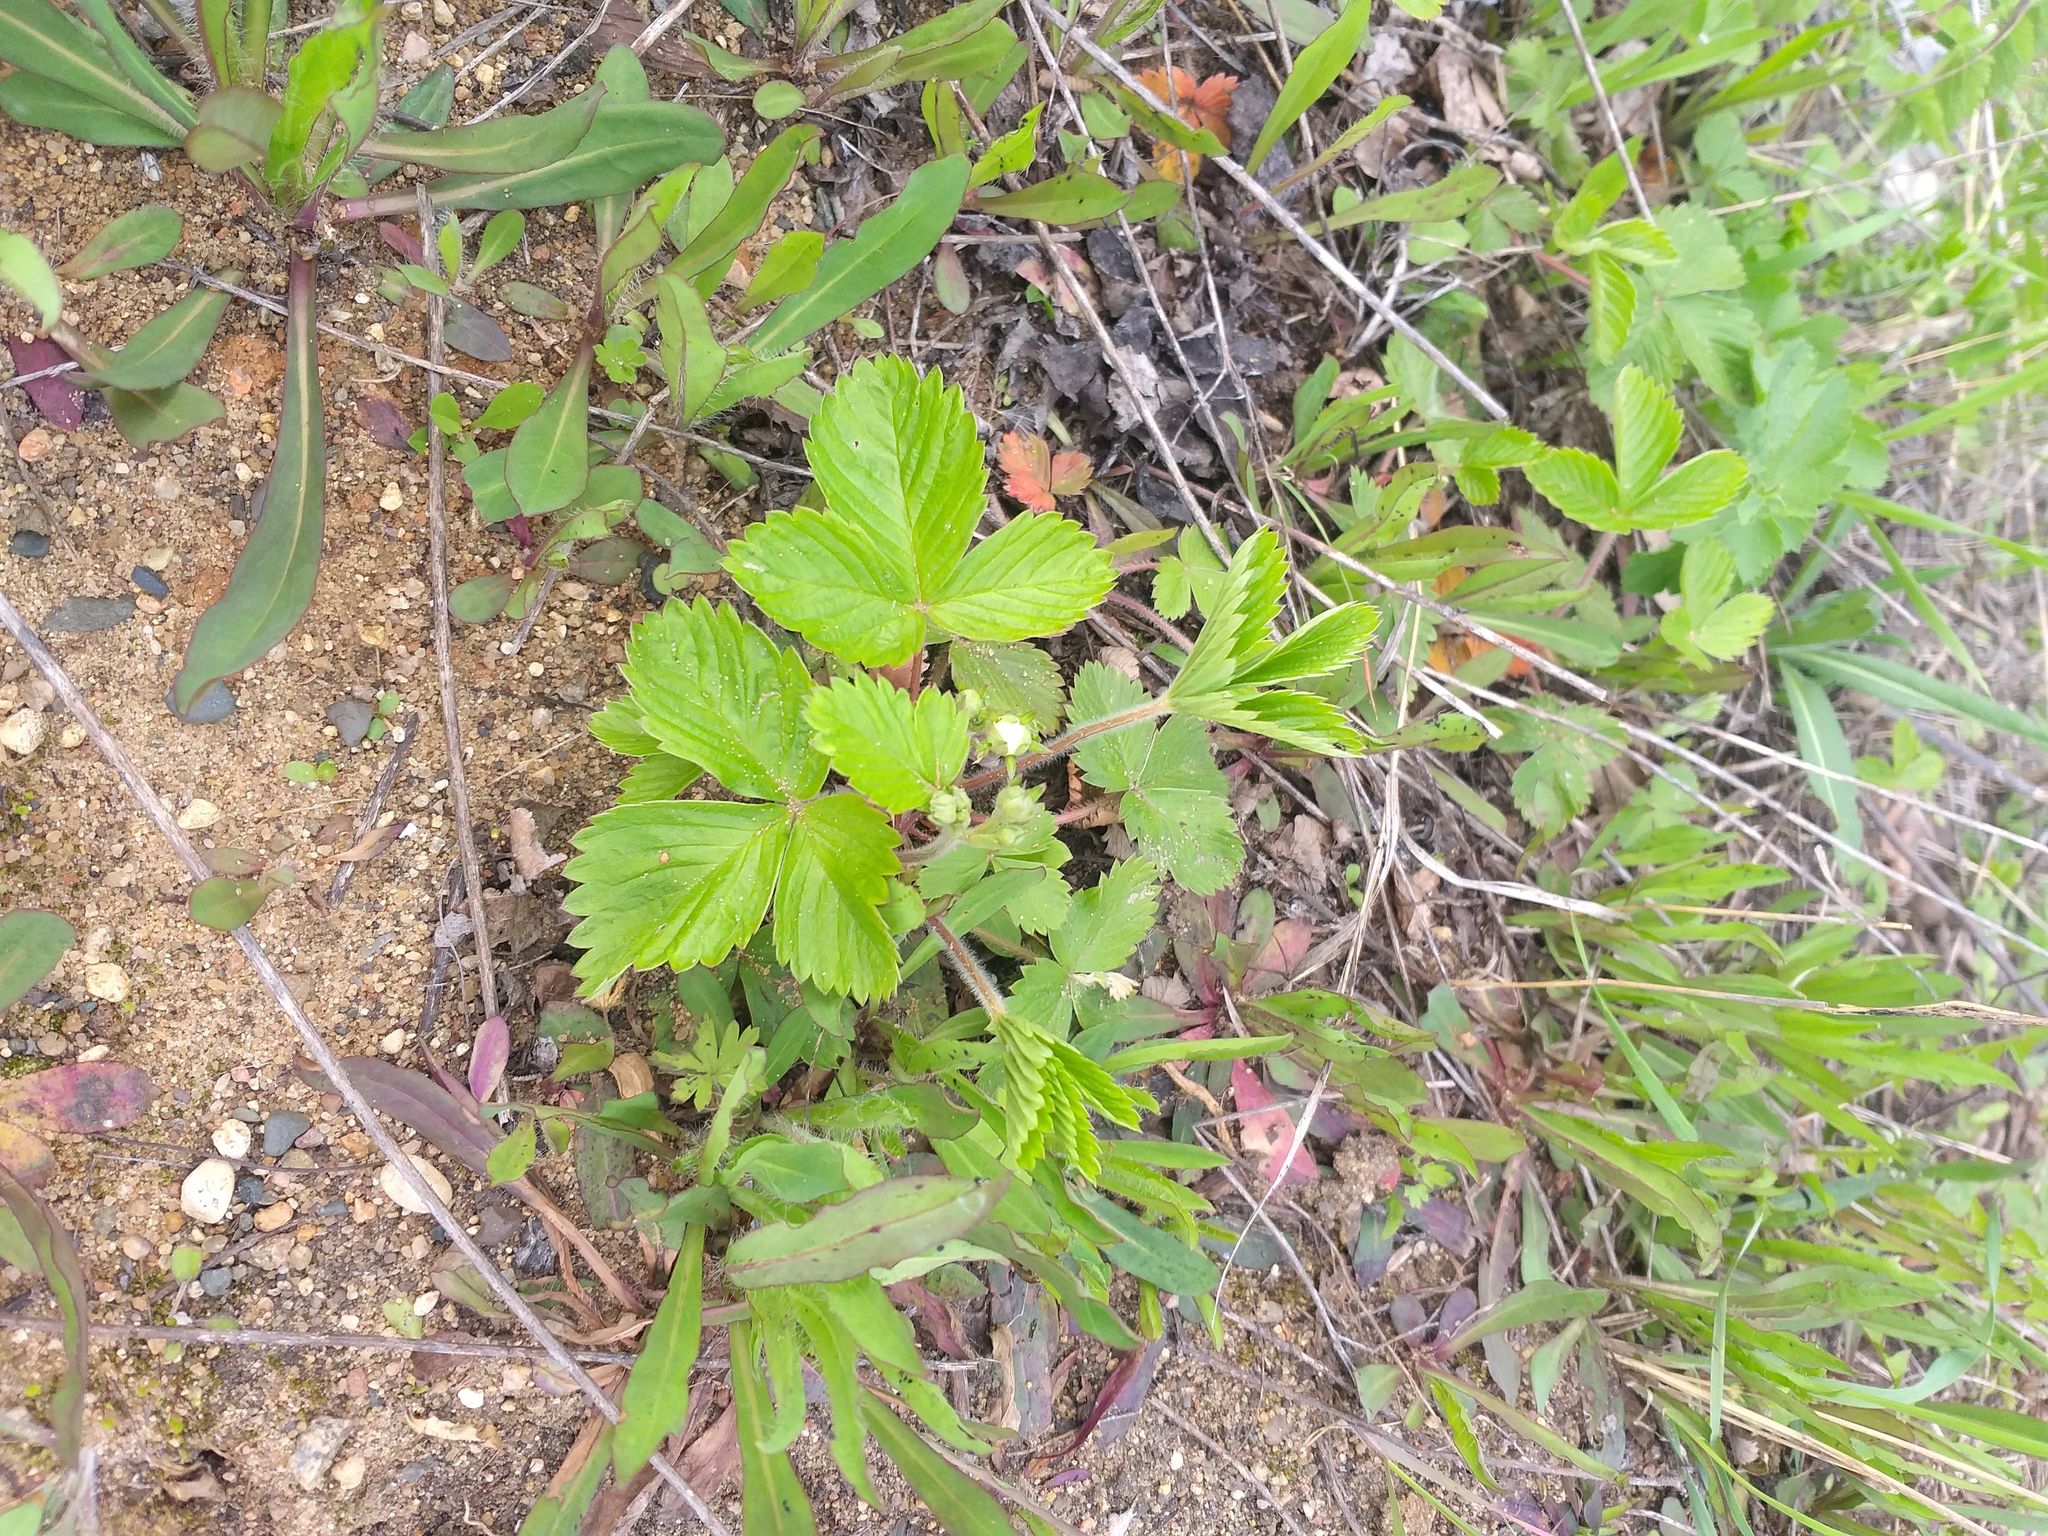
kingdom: Plantae
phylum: Tracheophyta
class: Magnoliopsida
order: Rosales
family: Rosaceae
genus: Fragaria
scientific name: Fragaria vesca
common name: Wild strawberry
